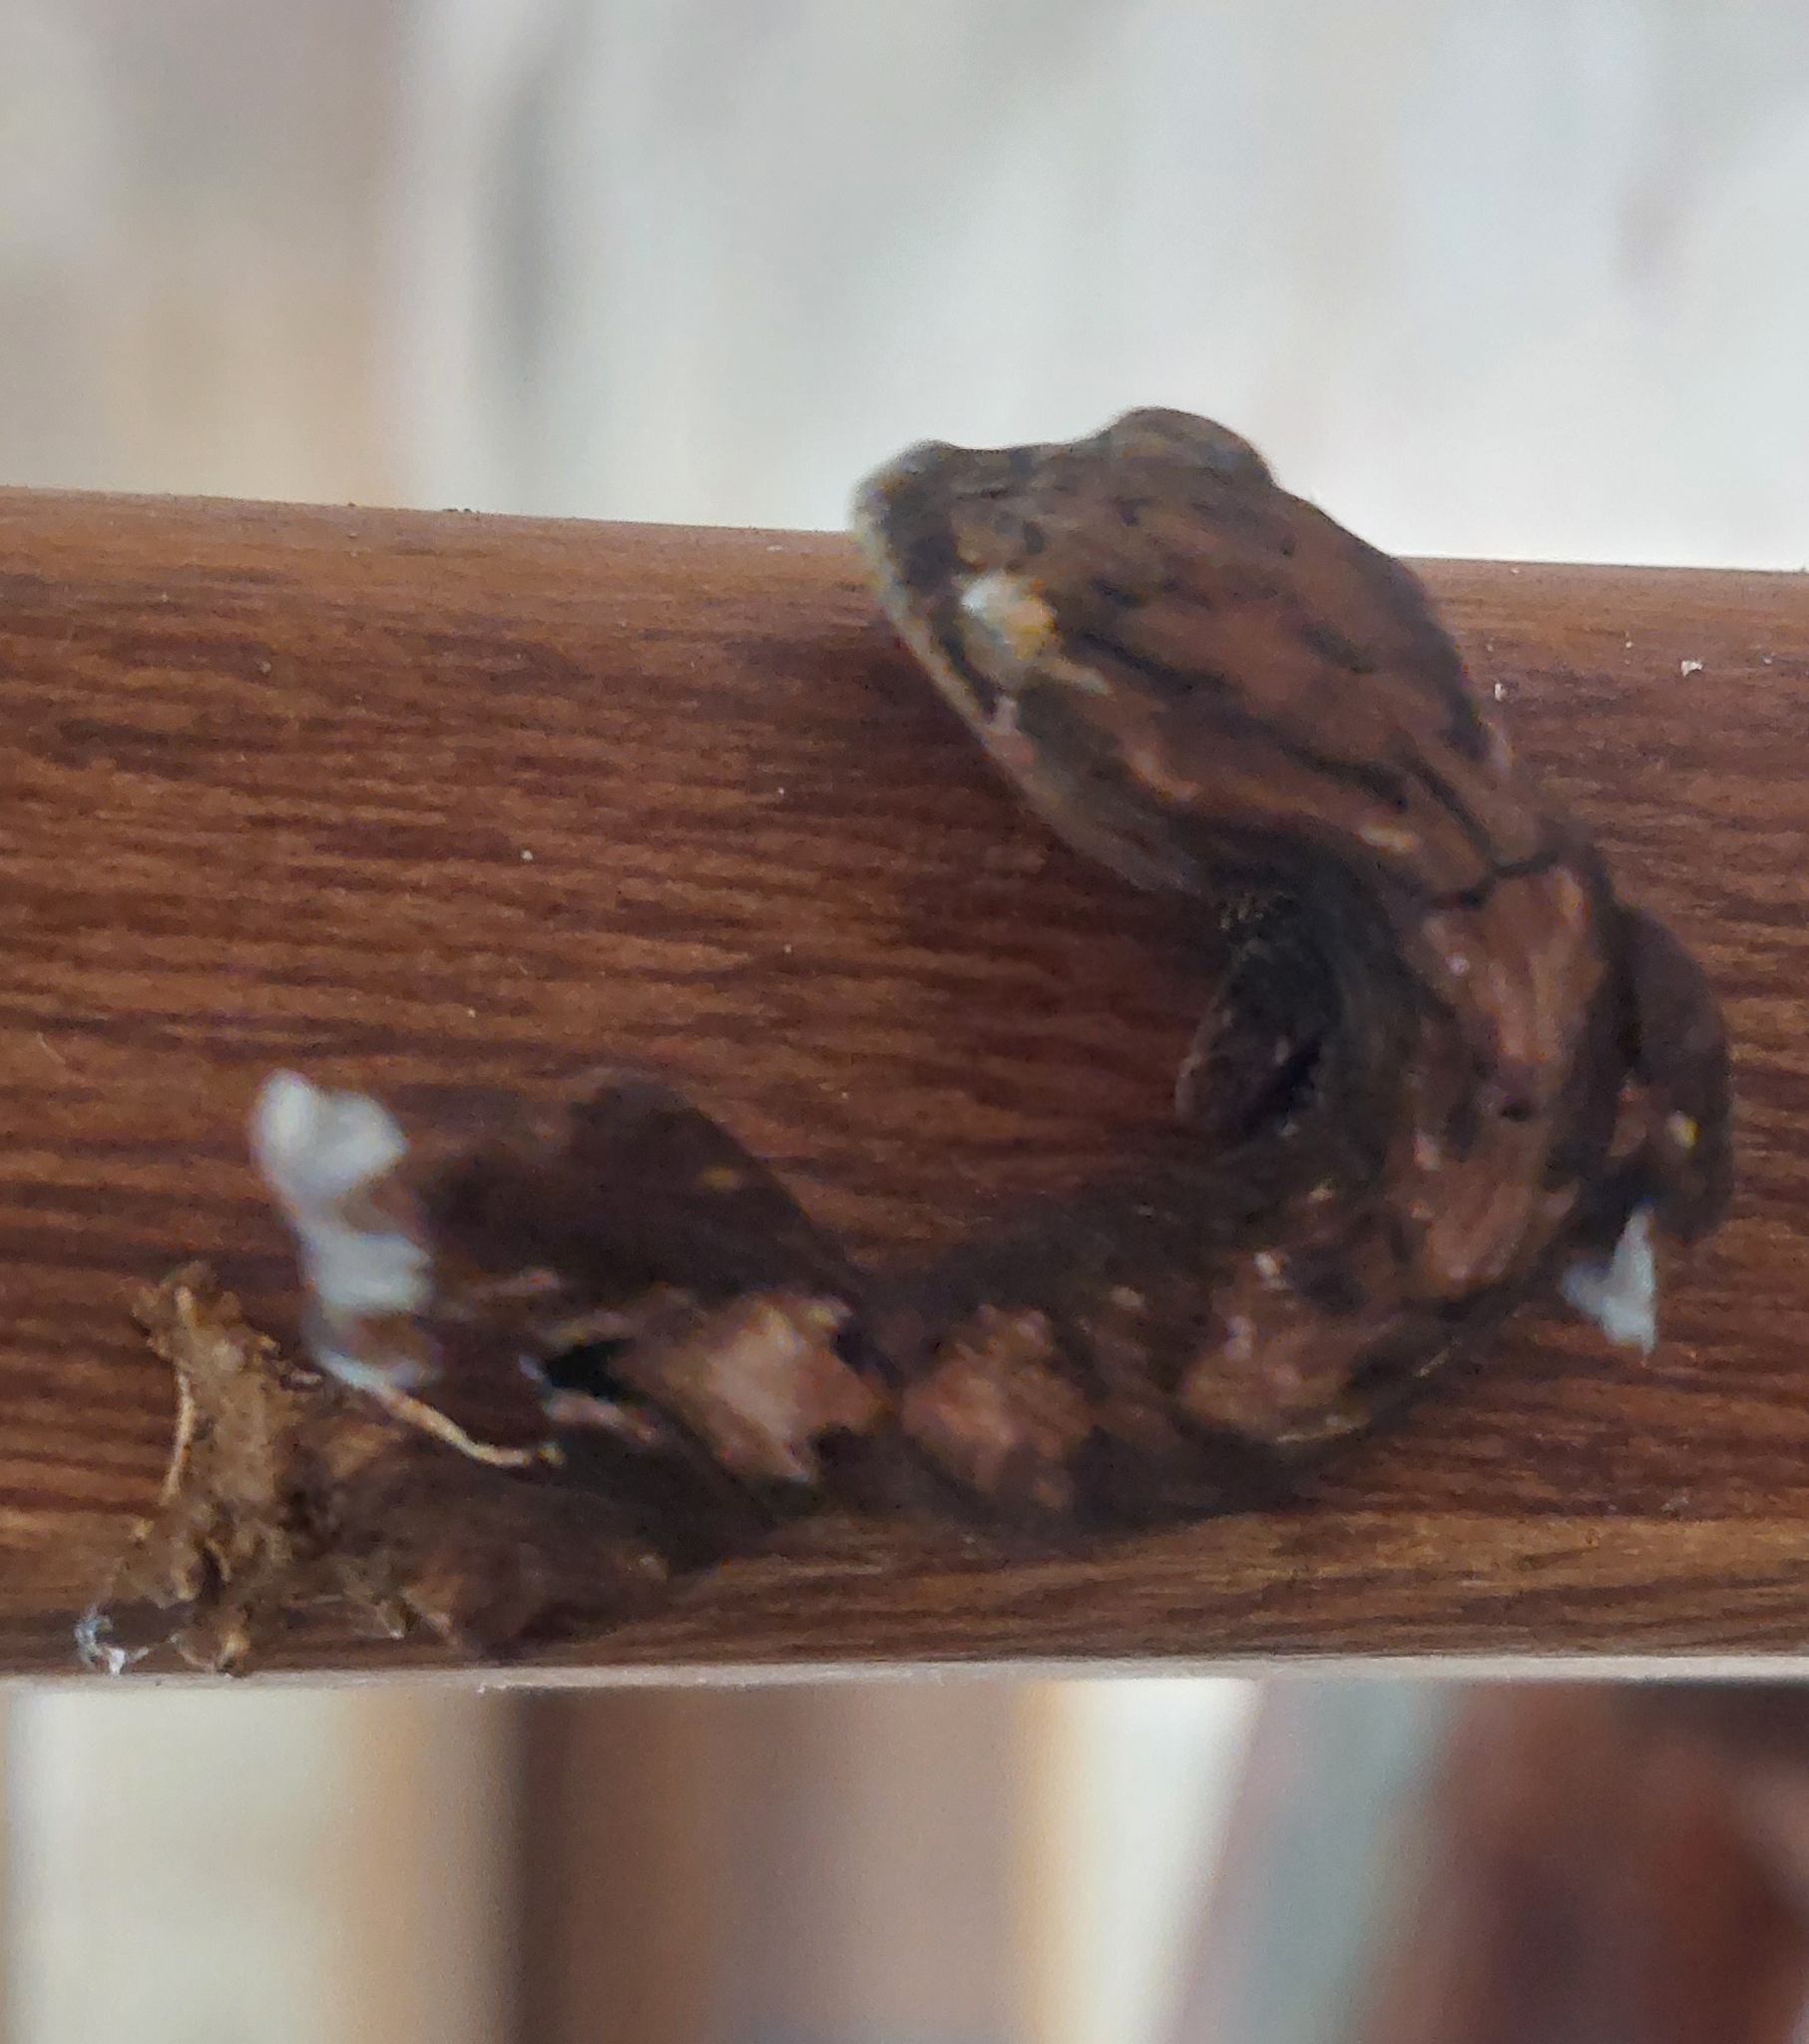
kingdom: Animalia
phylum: Chordata
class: Squamata
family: Phyllodactylidae
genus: Thecadactylus
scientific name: Thecadactylus solimoensis
